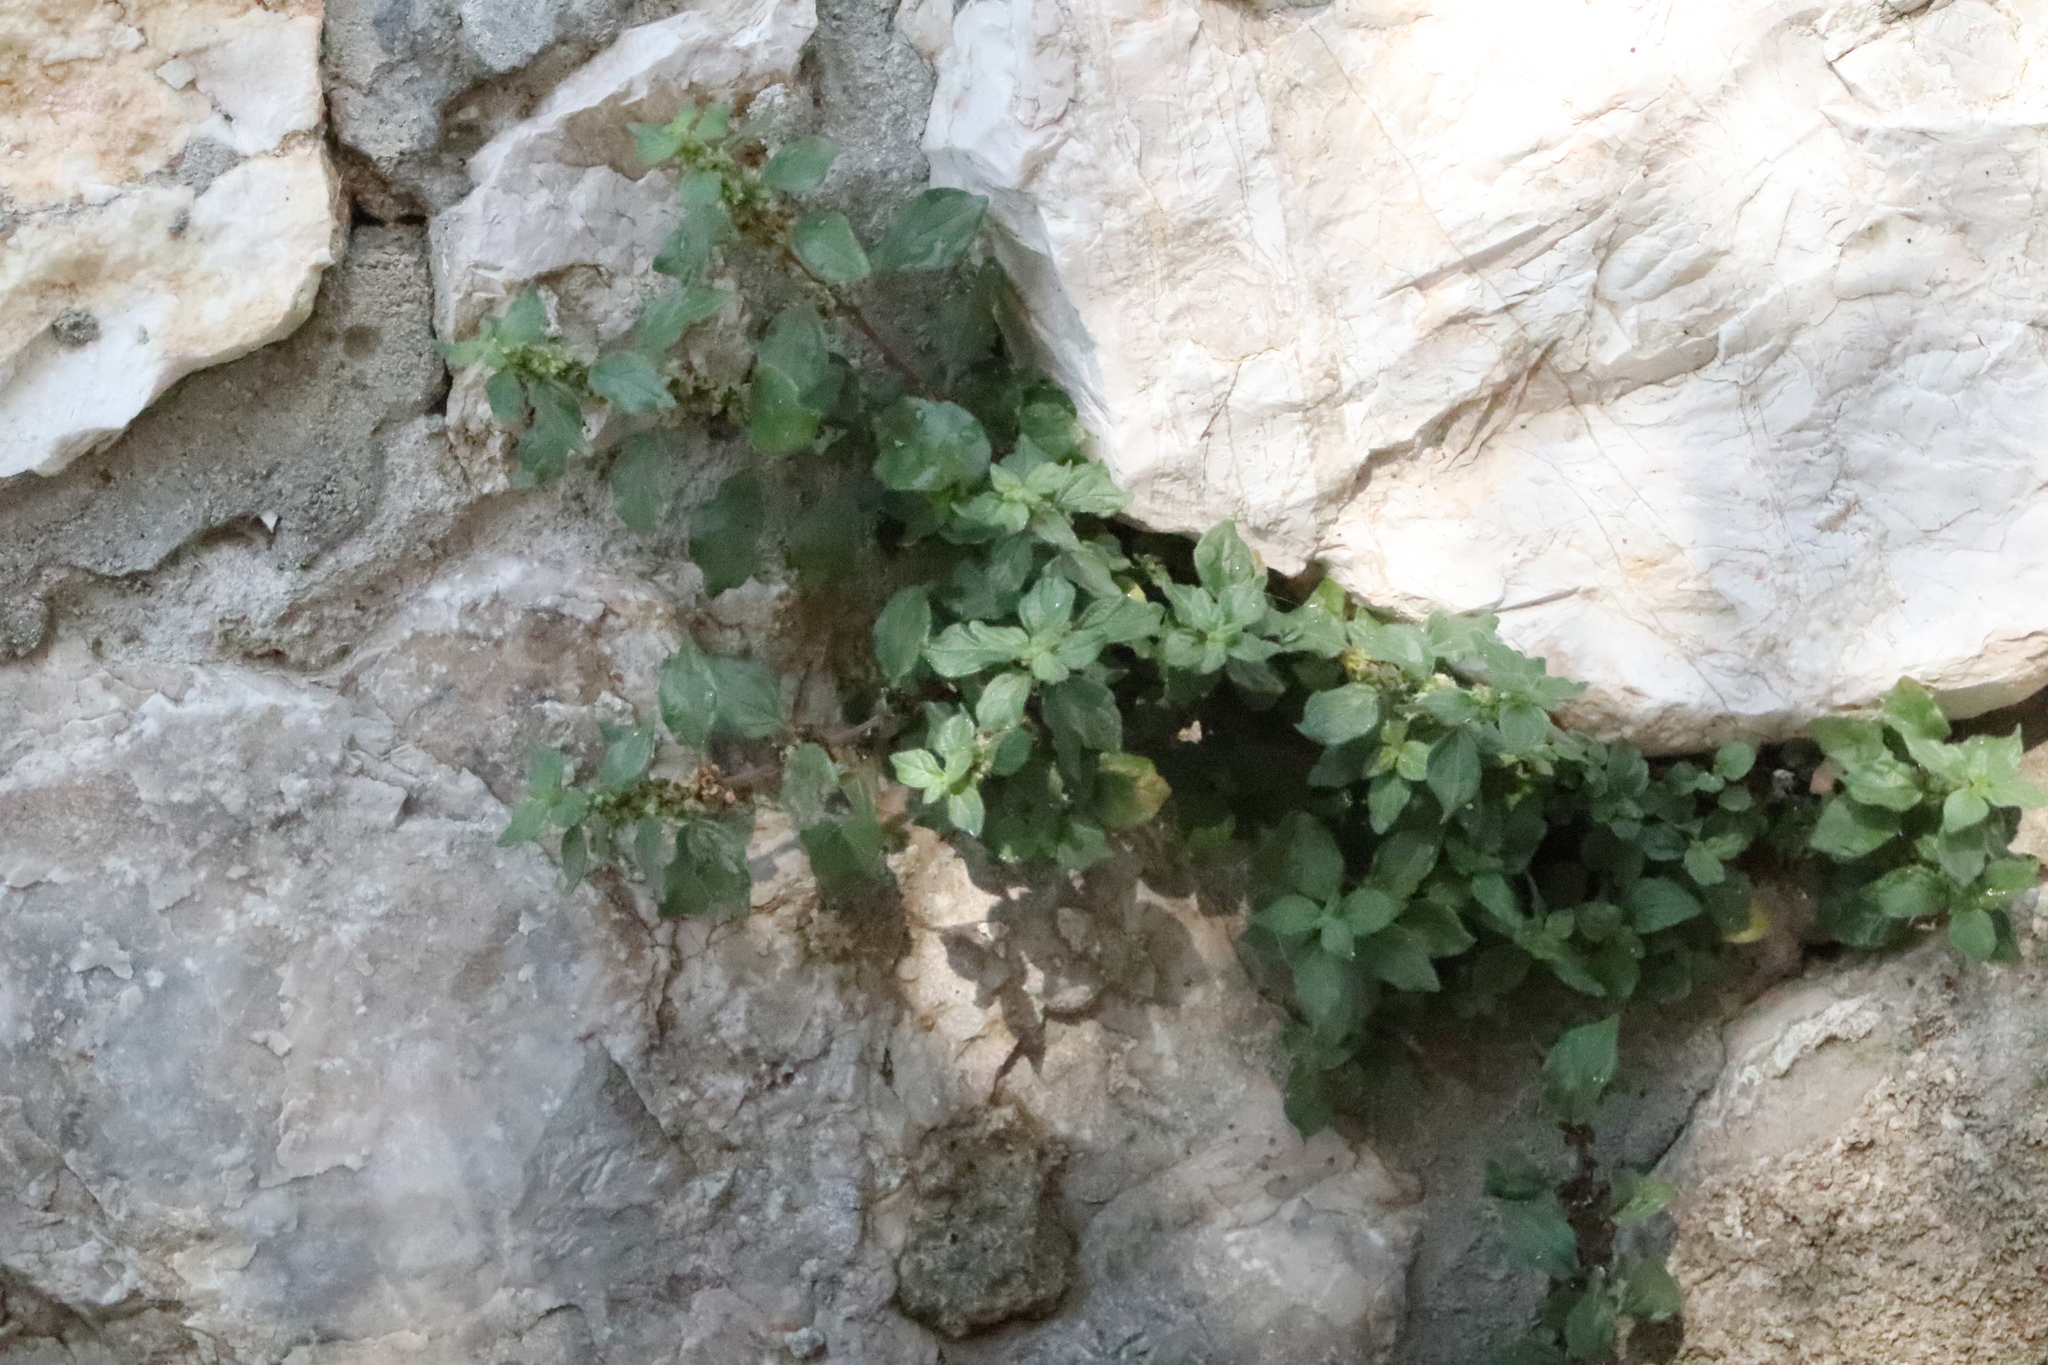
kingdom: Plantae
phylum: Tracheophyta
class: Magnoliopsida
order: Rosales
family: Urticaceae
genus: Parietaria
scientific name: Parietaria judaica
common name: Pellitory-of-the-wall
